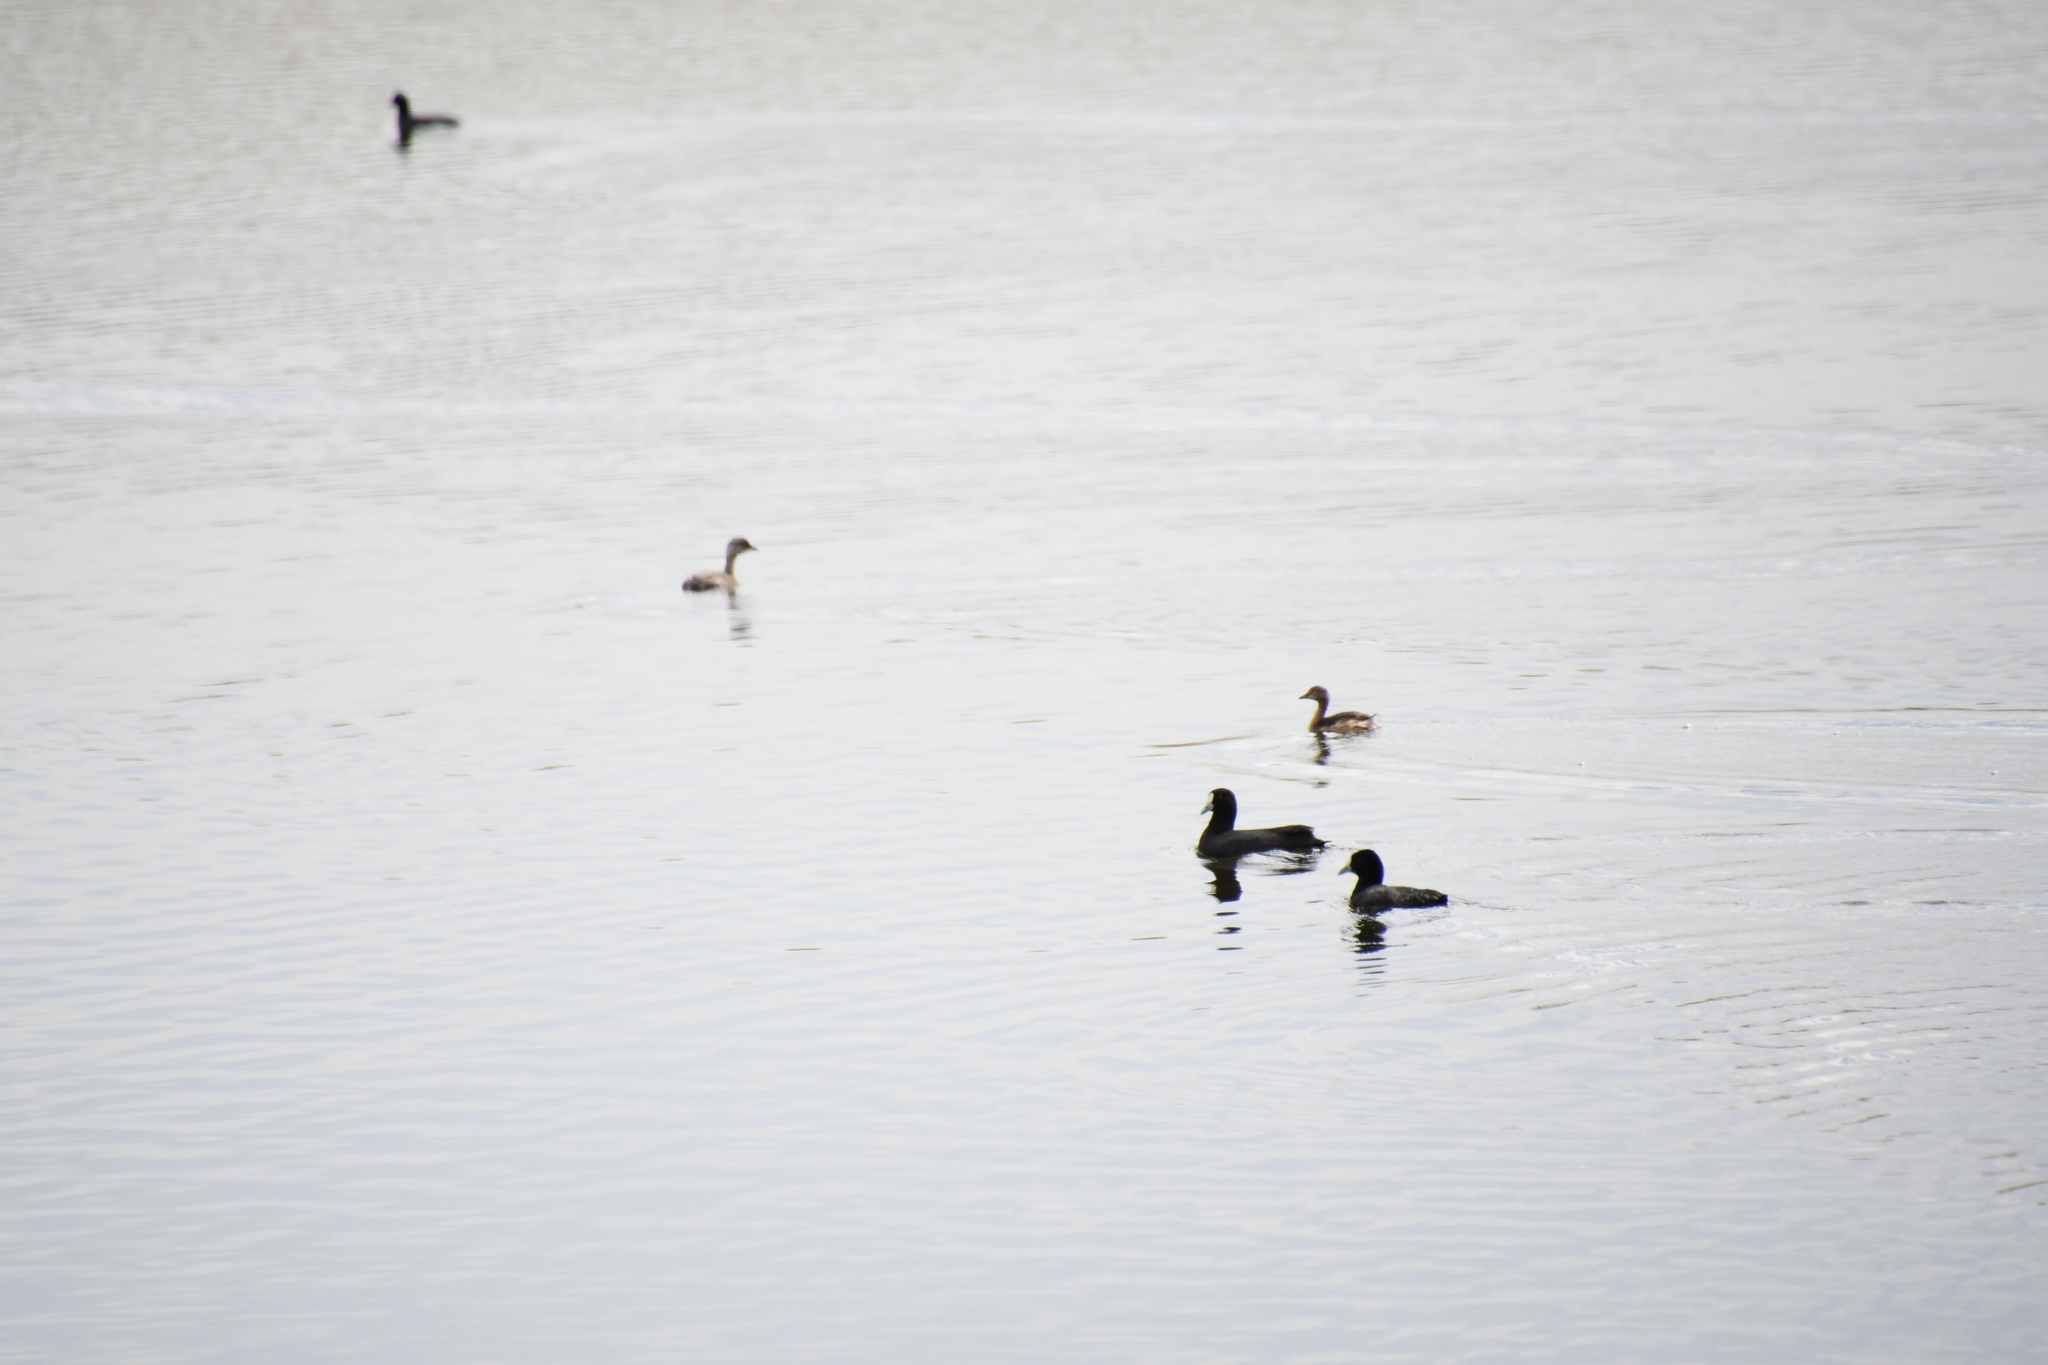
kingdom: Animalia
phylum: Chordata
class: Aves
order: Gruiformes
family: Rallidae
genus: Fulica
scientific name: Fulica atra
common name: Eurasian coot
